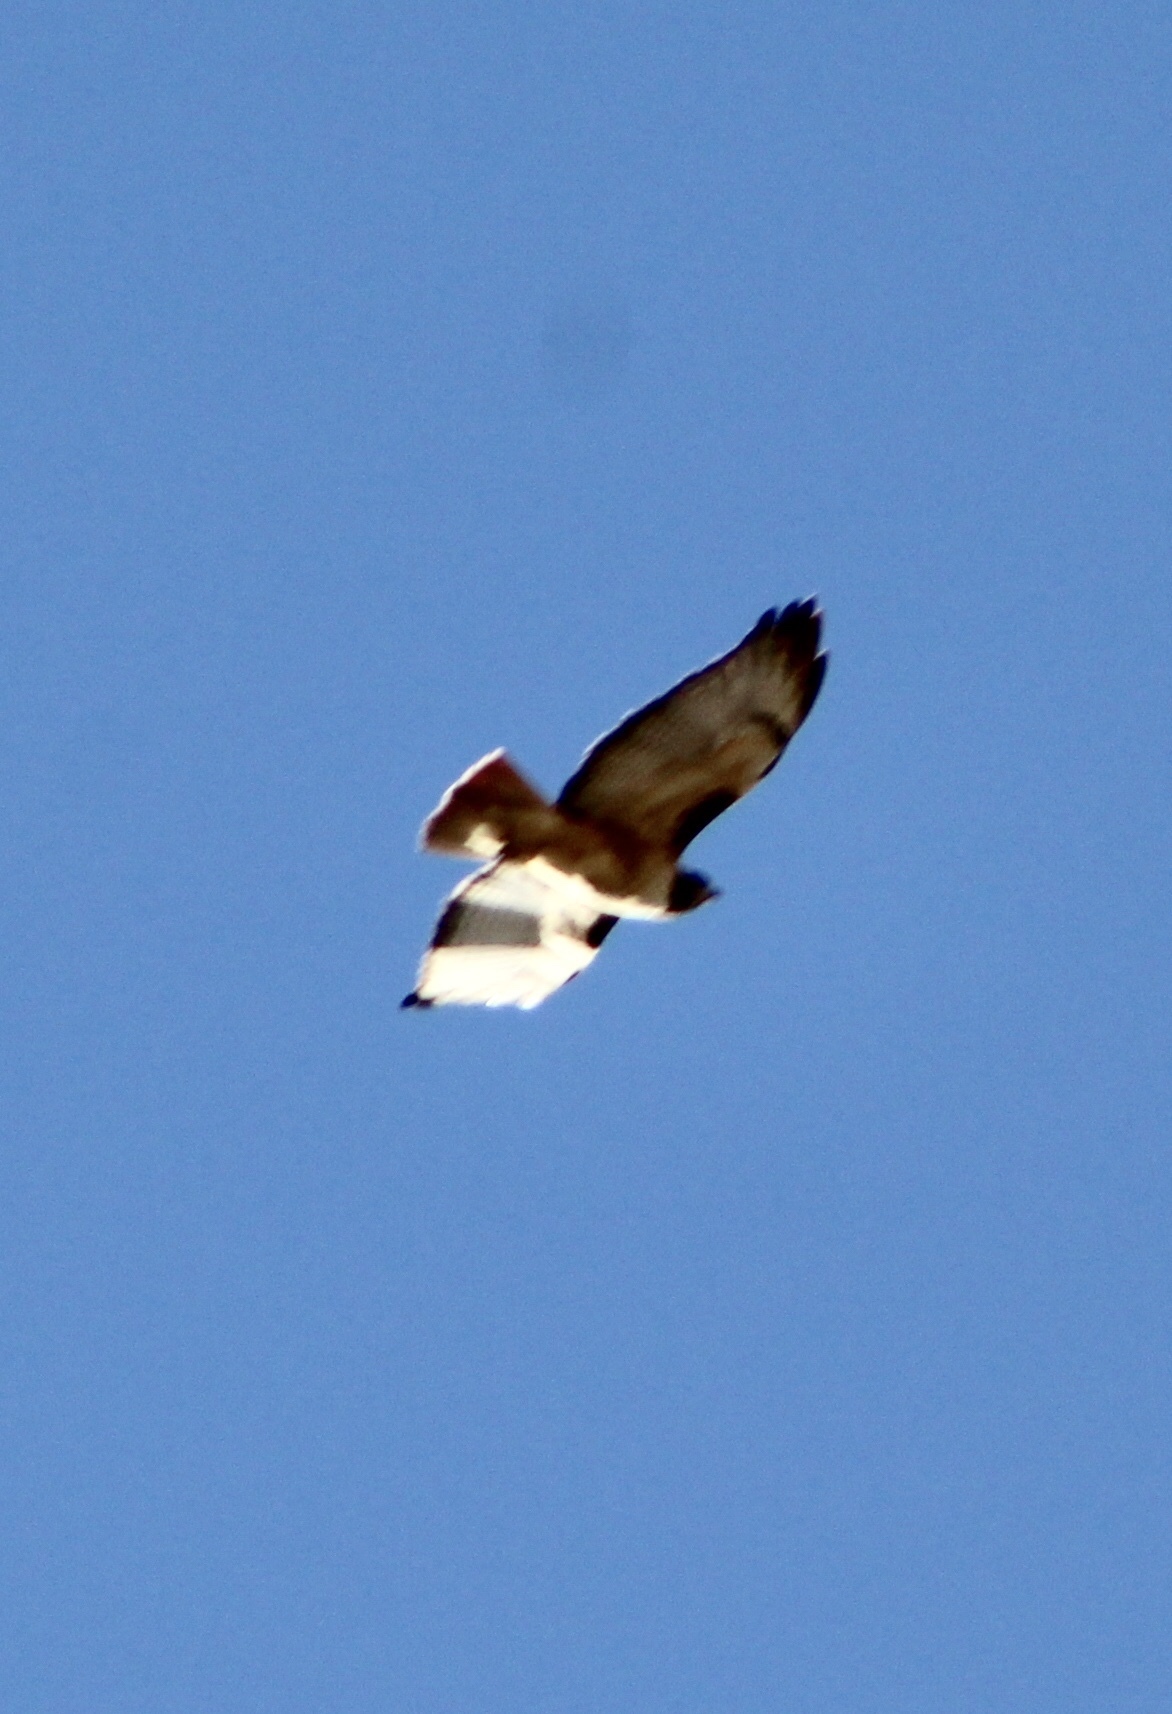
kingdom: Animalia
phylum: Chordata
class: Aves
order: Accipitriformes
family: Accipitridae
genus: Buteo
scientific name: Buteo jamaicensis
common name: Red-tailed hawk
